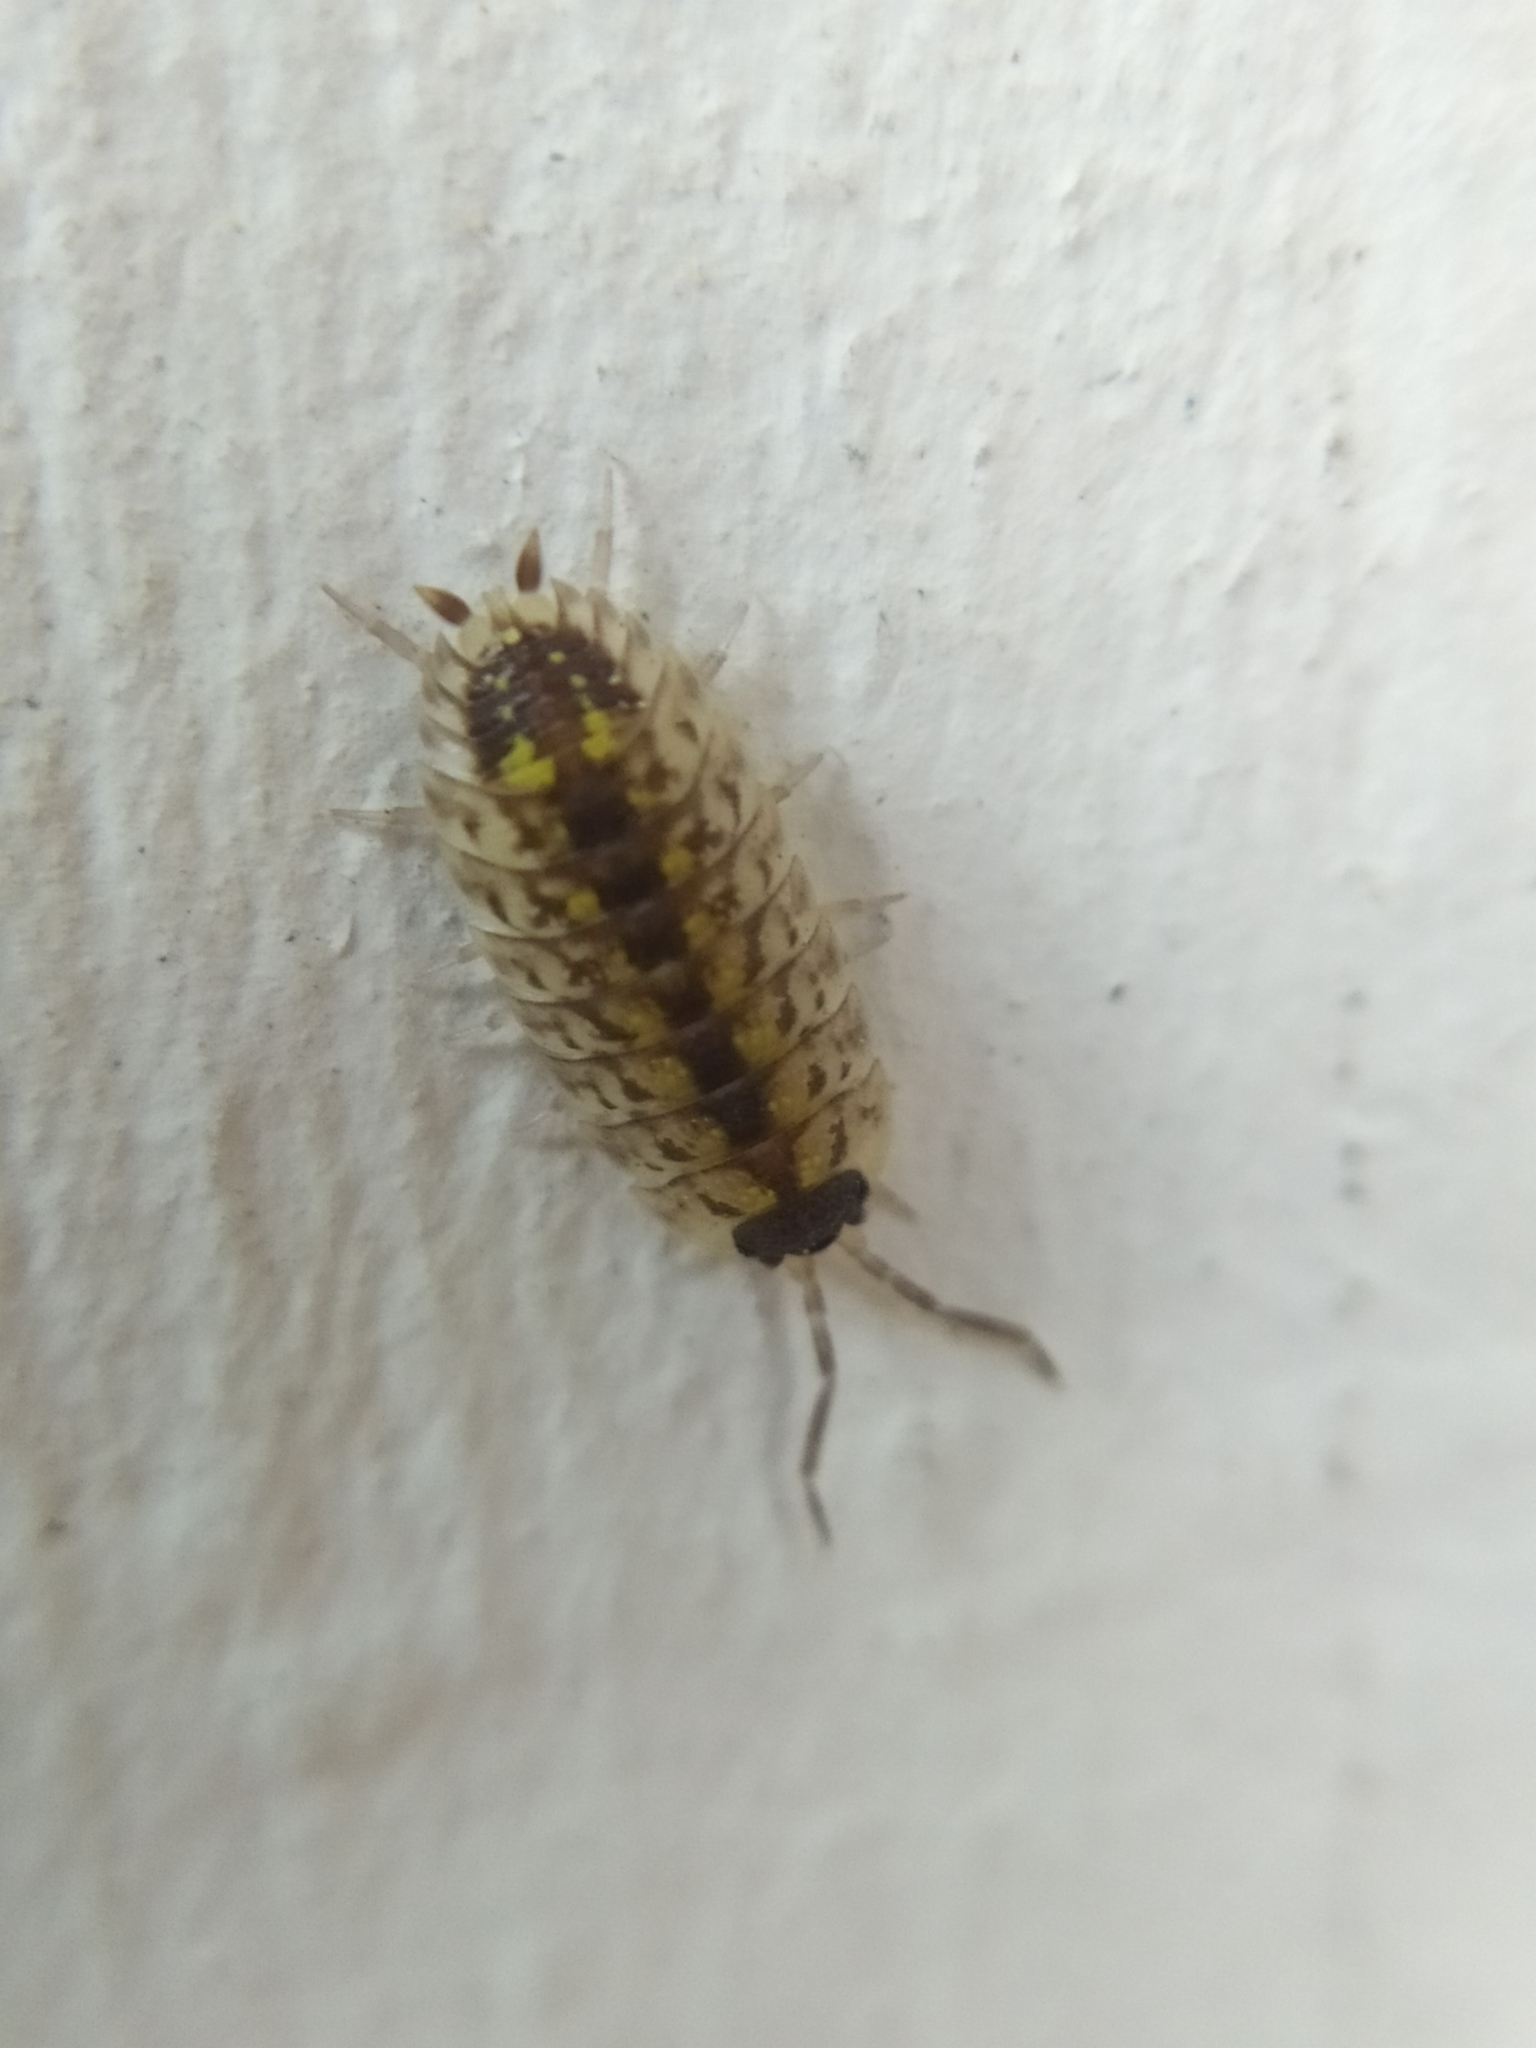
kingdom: Animalia
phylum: Arthropoda
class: Malacostraca
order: Isopoda
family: Porcellionidae
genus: Porcellio
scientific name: Porcellio spinicornis
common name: Painted woodlouse
